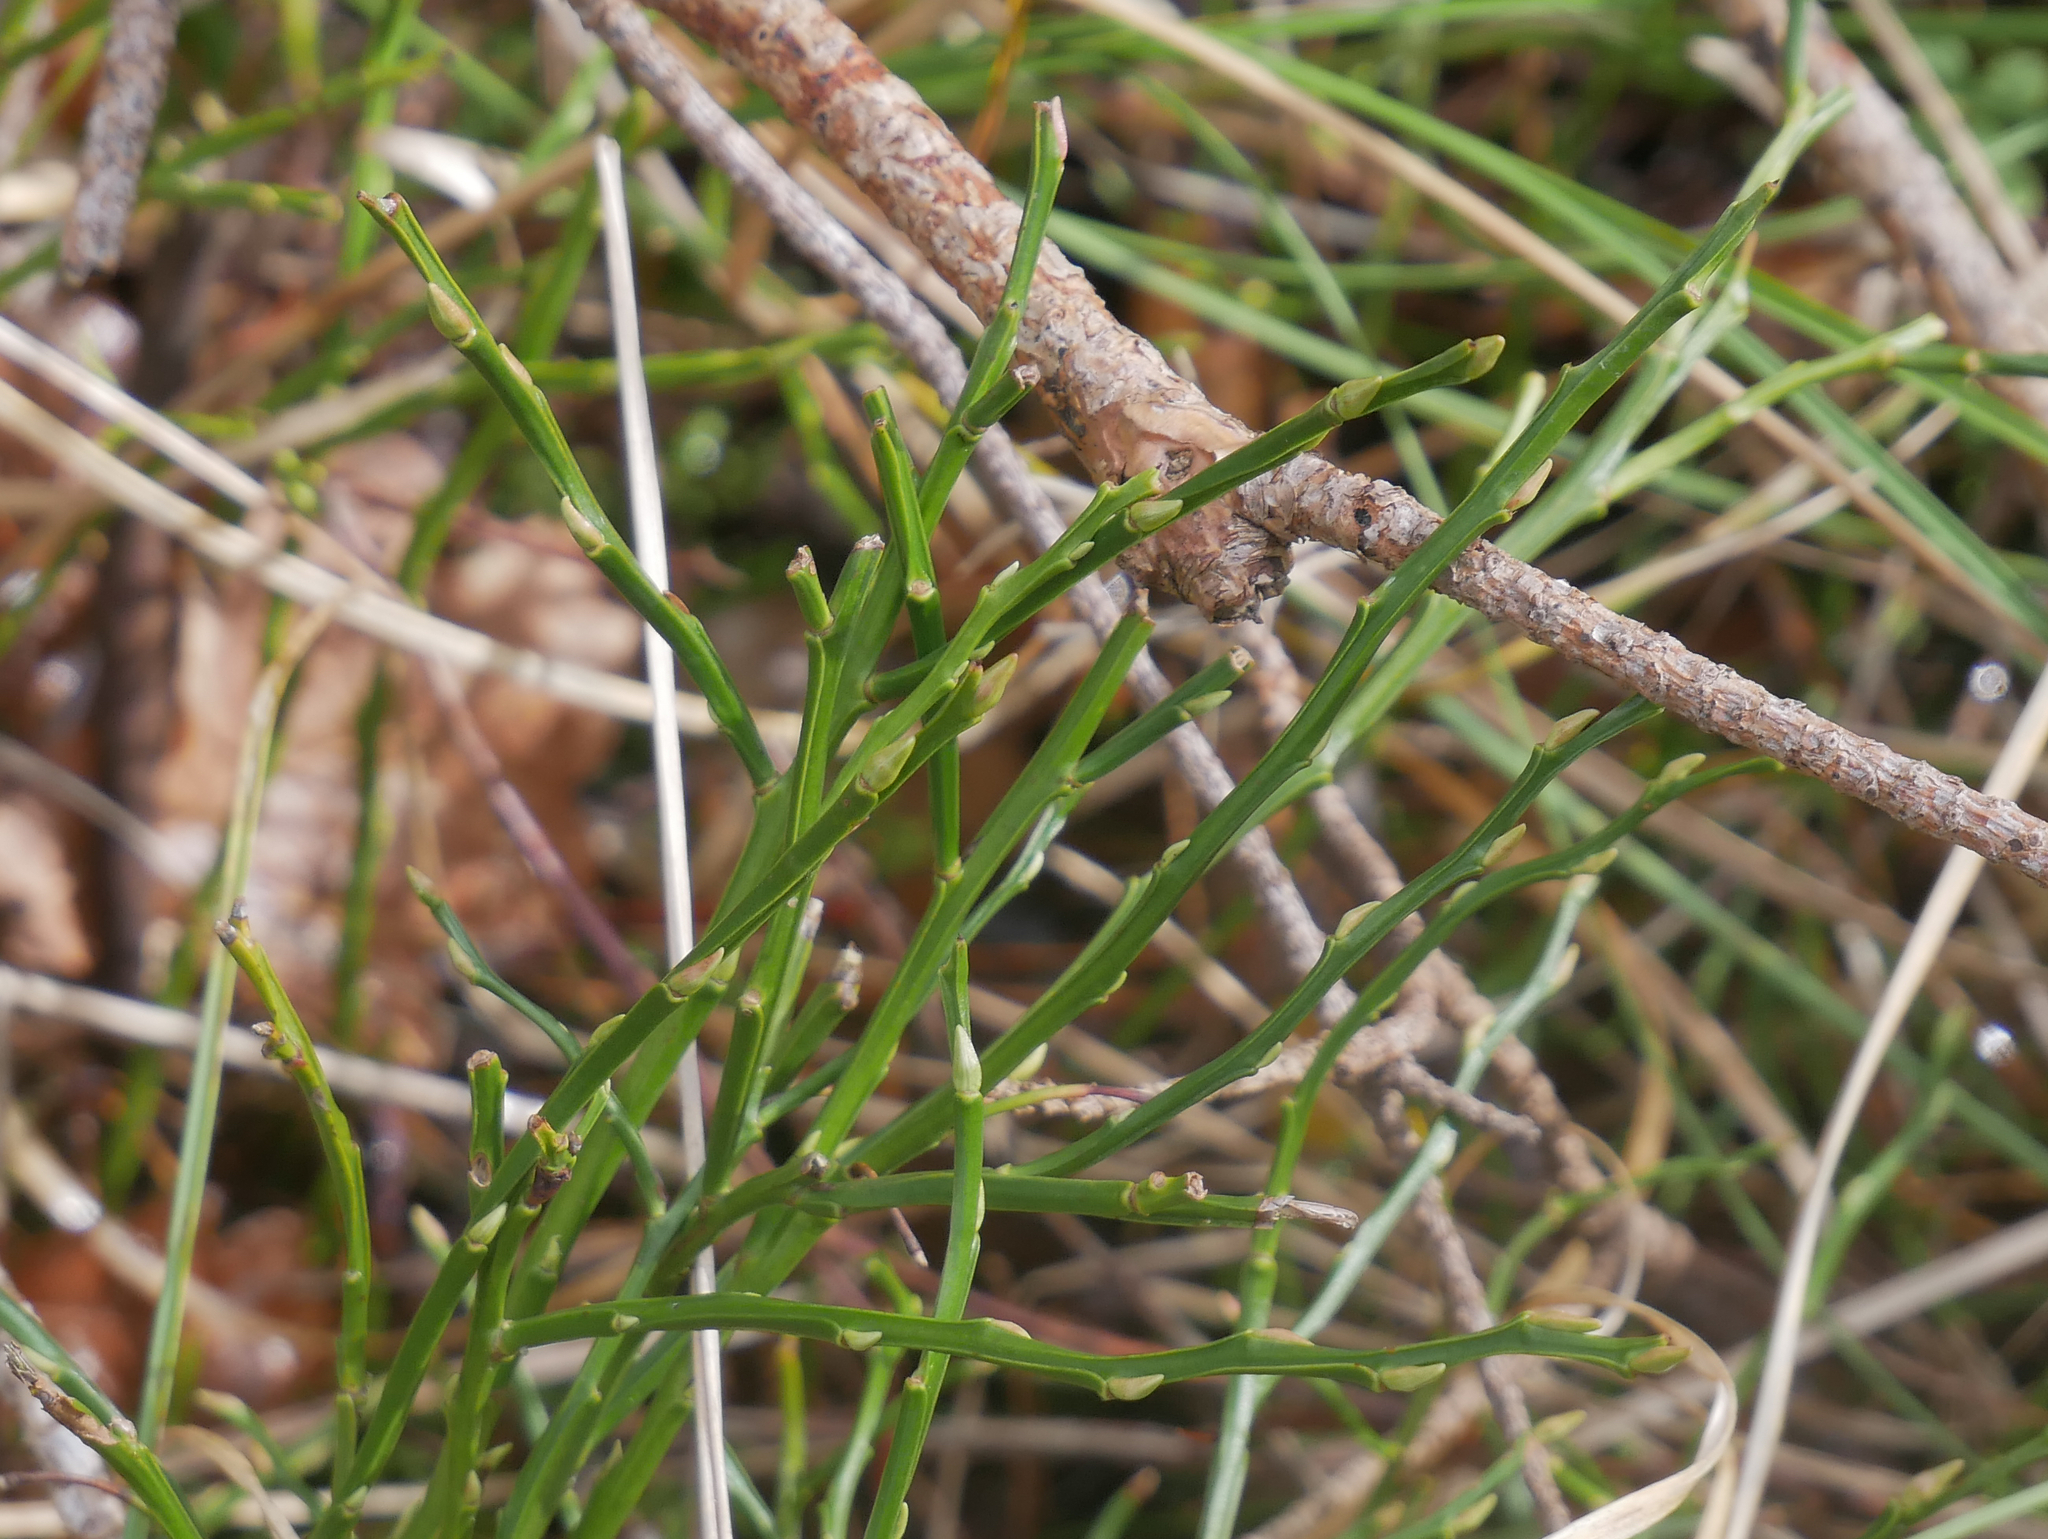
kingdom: Plantae
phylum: Tracheophyta
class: Magnoliopsida
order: Ericales
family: Ericaceae
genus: Vaccinium
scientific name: Vaccinium myrtillus
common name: Bilberry
